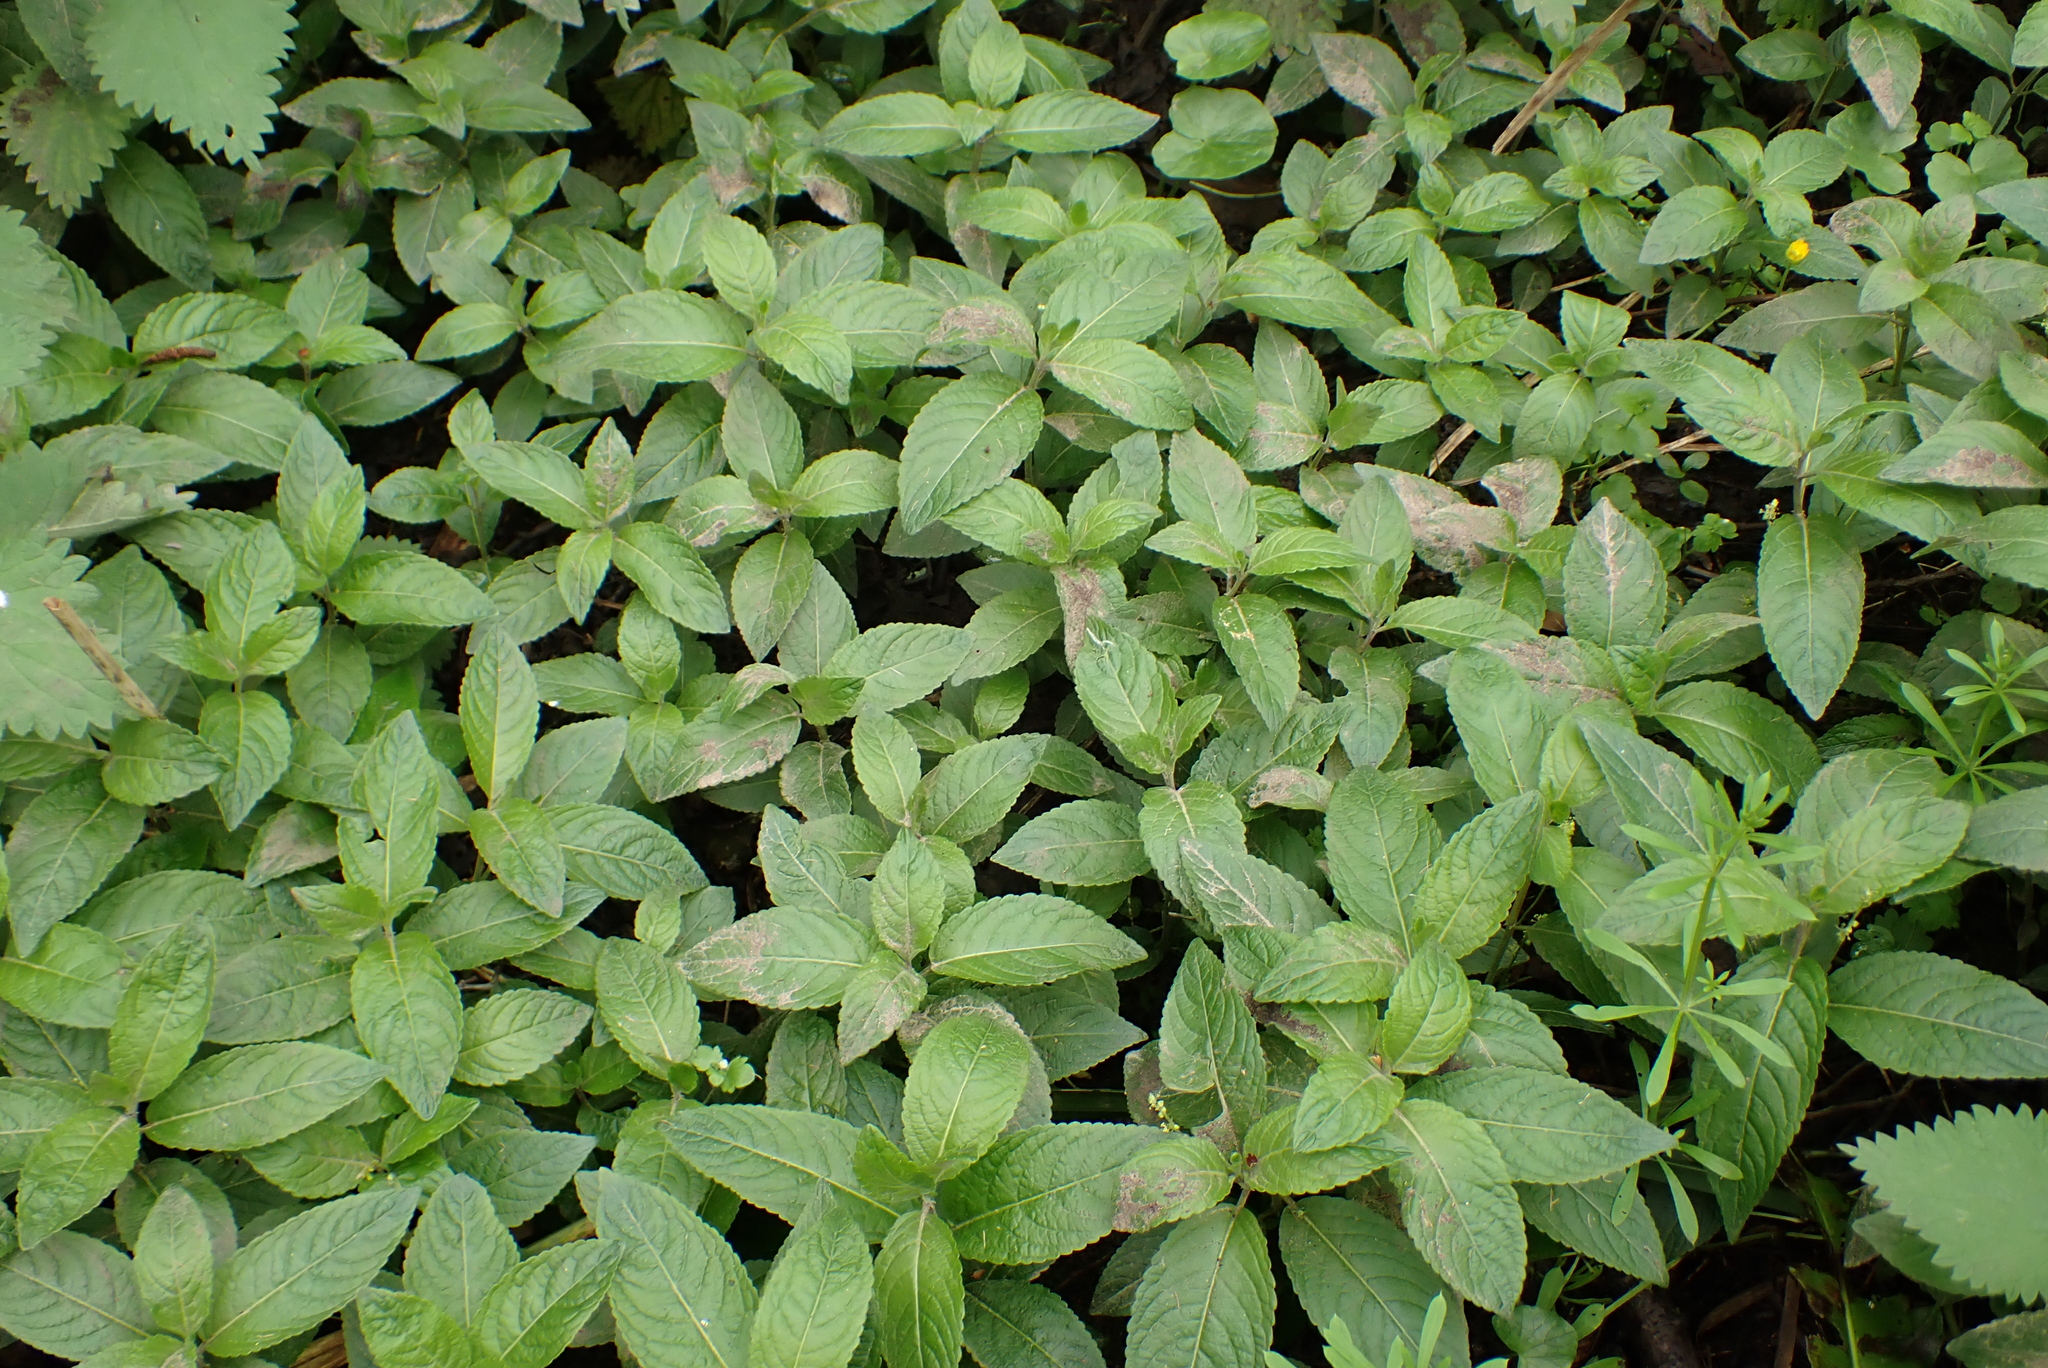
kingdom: Plantae
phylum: Tracheophyta
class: Magnoliopsida
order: Malpighiales
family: Euphorbiaceae
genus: Mercurialis
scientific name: Mercurialis perennis
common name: Dog mercury
